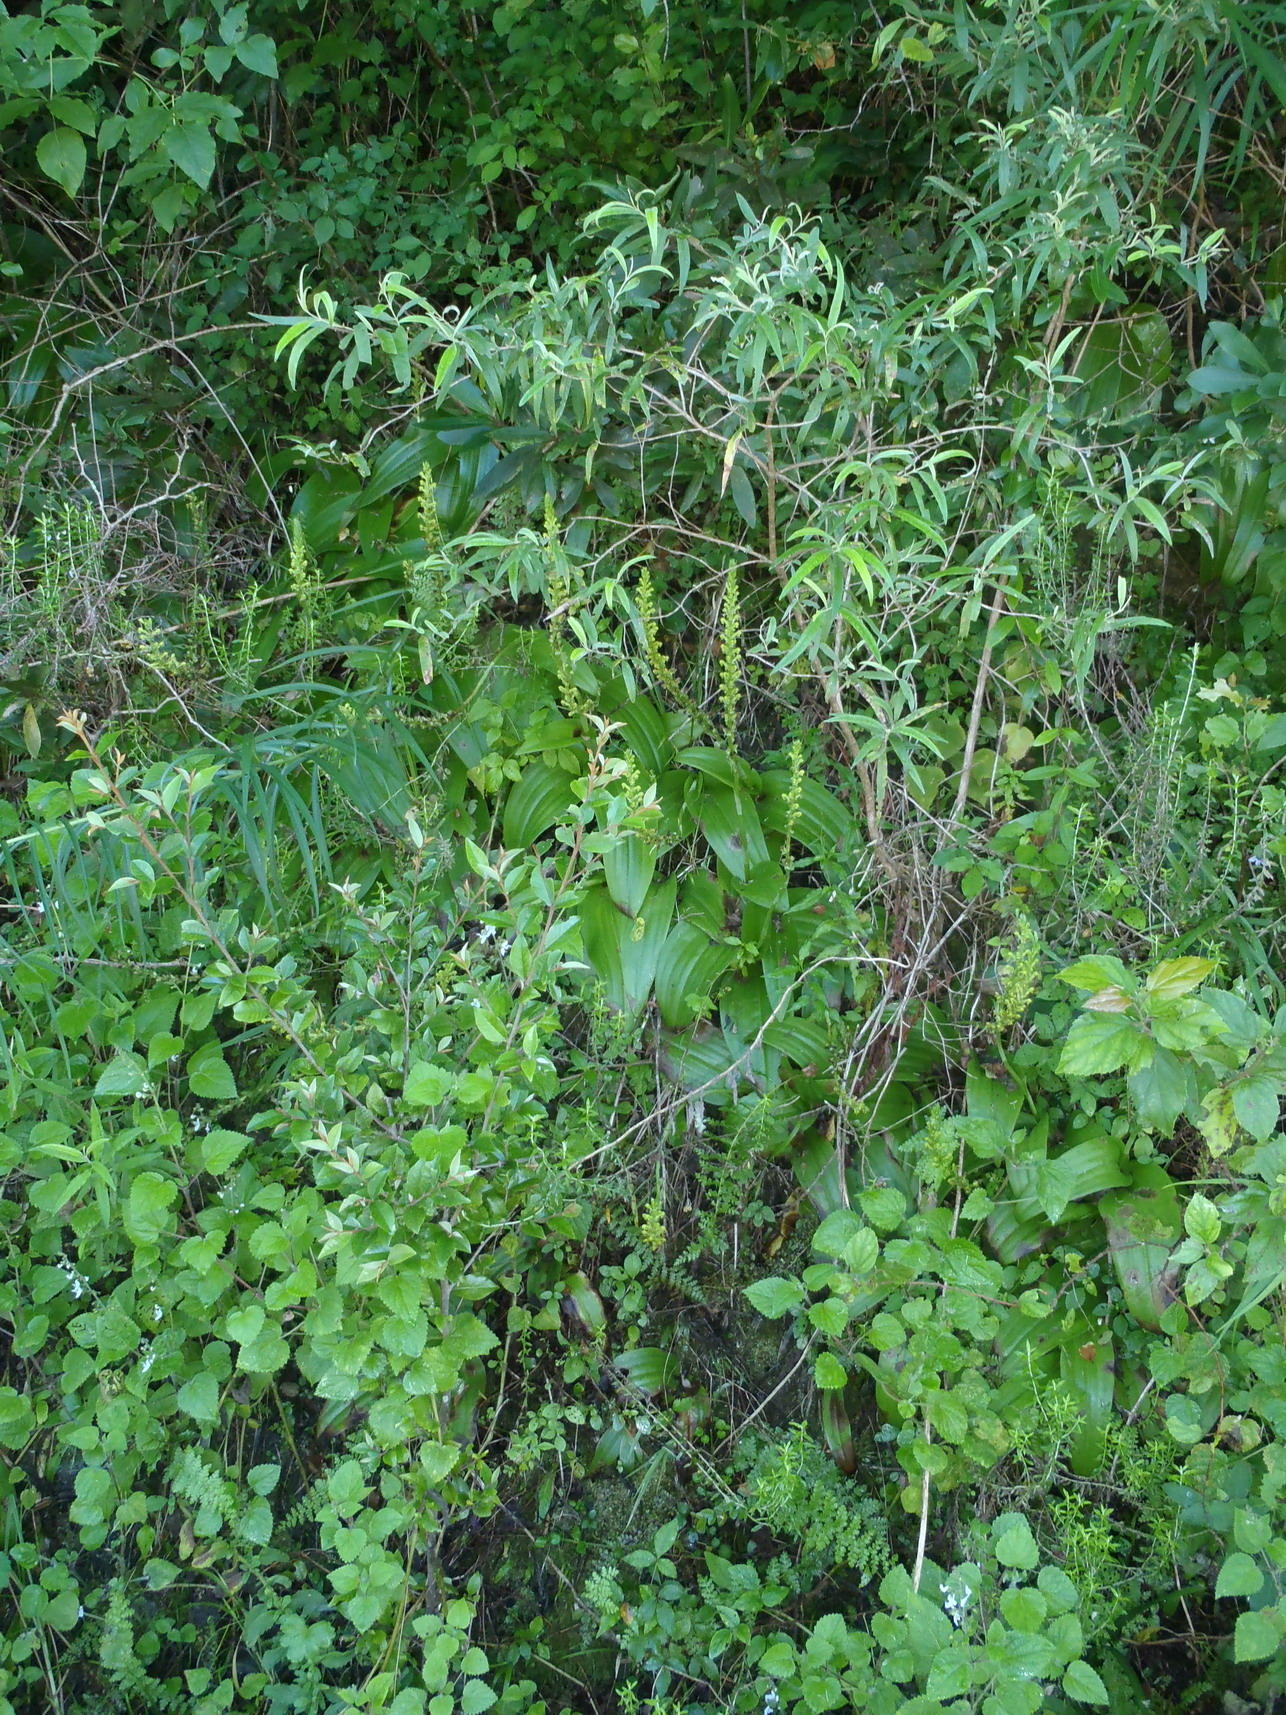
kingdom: Plantae
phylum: Tracheophyta
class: Liliopsida
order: Asparagales
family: Orchidaceae
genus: Satyrium
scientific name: Satyrium parviflorum
